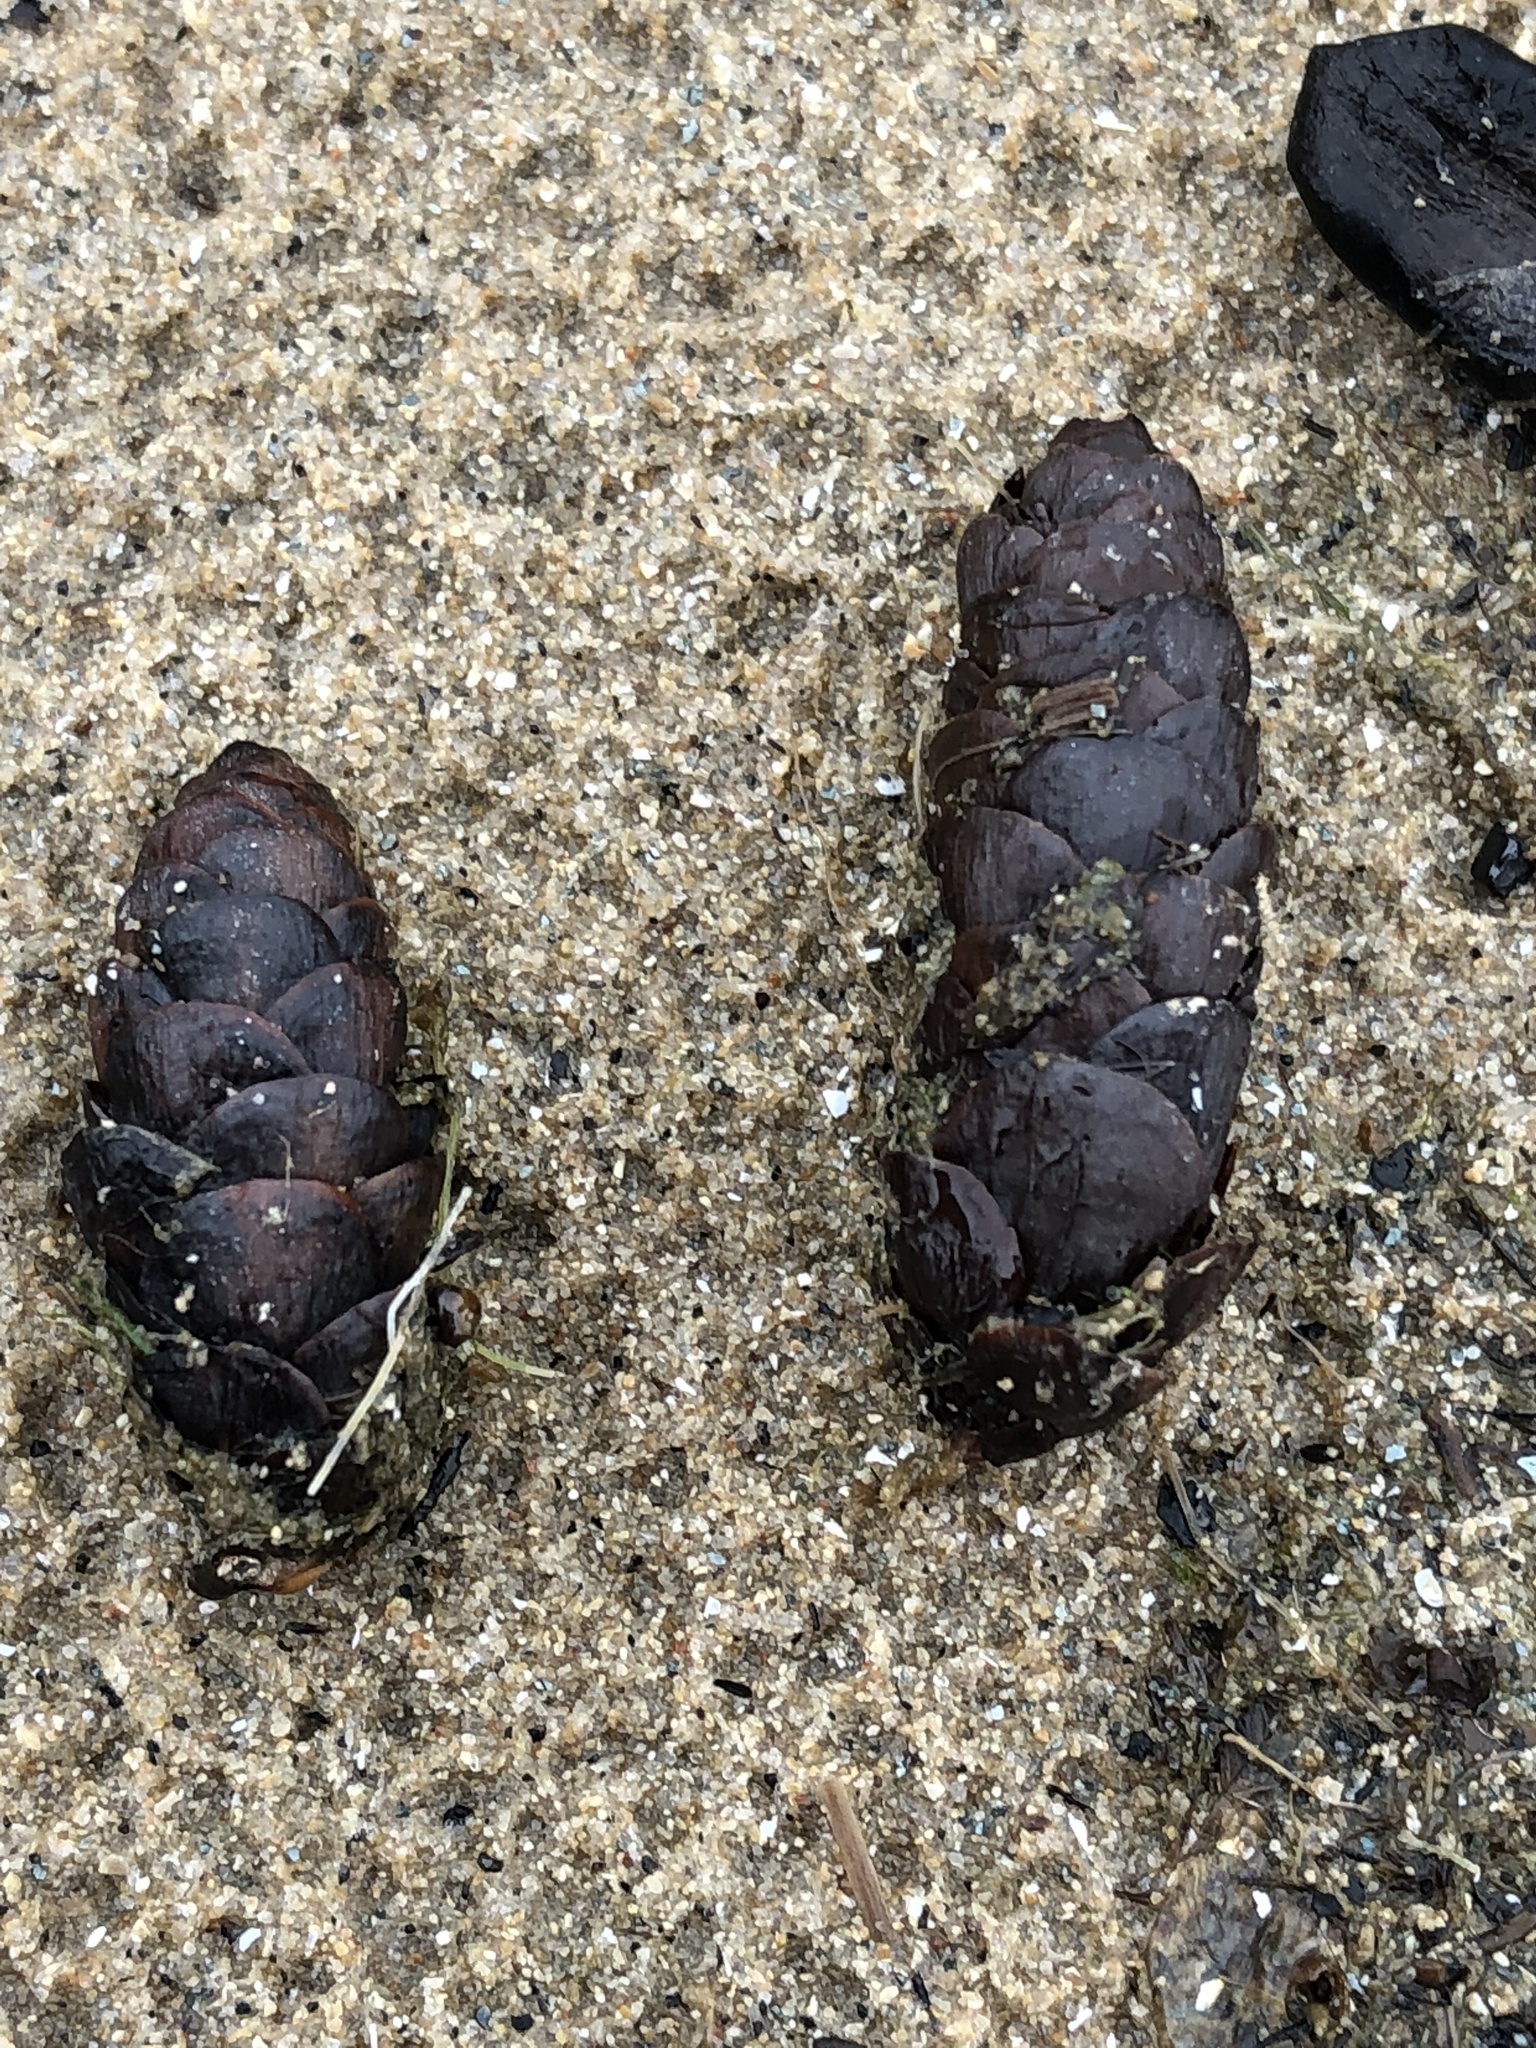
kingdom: Plantae
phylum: Tracheophyta
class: Pinopsida
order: Pinales
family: Pinaceae
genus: Picea
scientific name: Picea glauca
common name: White spruce
